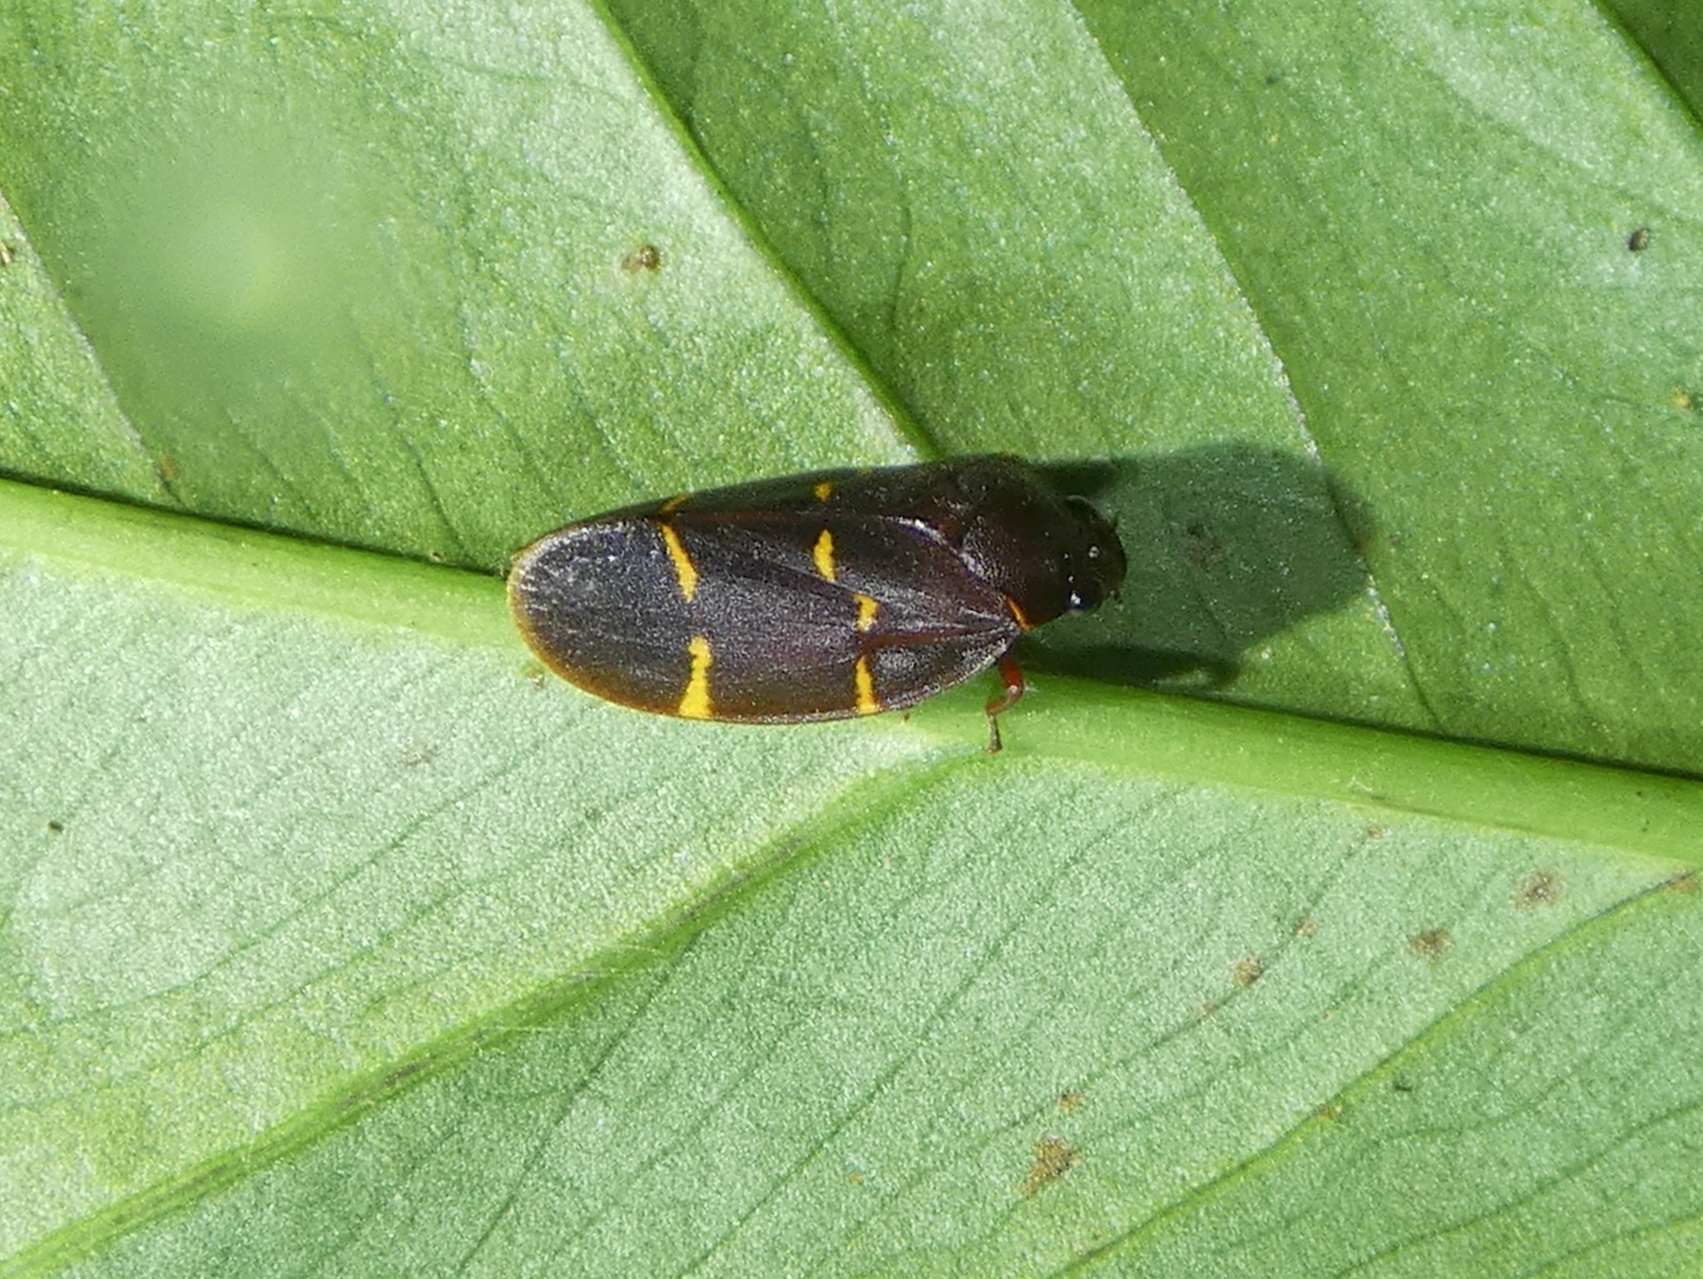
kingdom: Animalia
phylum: Arthropoda
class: Insecta
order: Hemiptera
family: Cercopidae
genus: Vorago
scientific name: Vorago boxi
